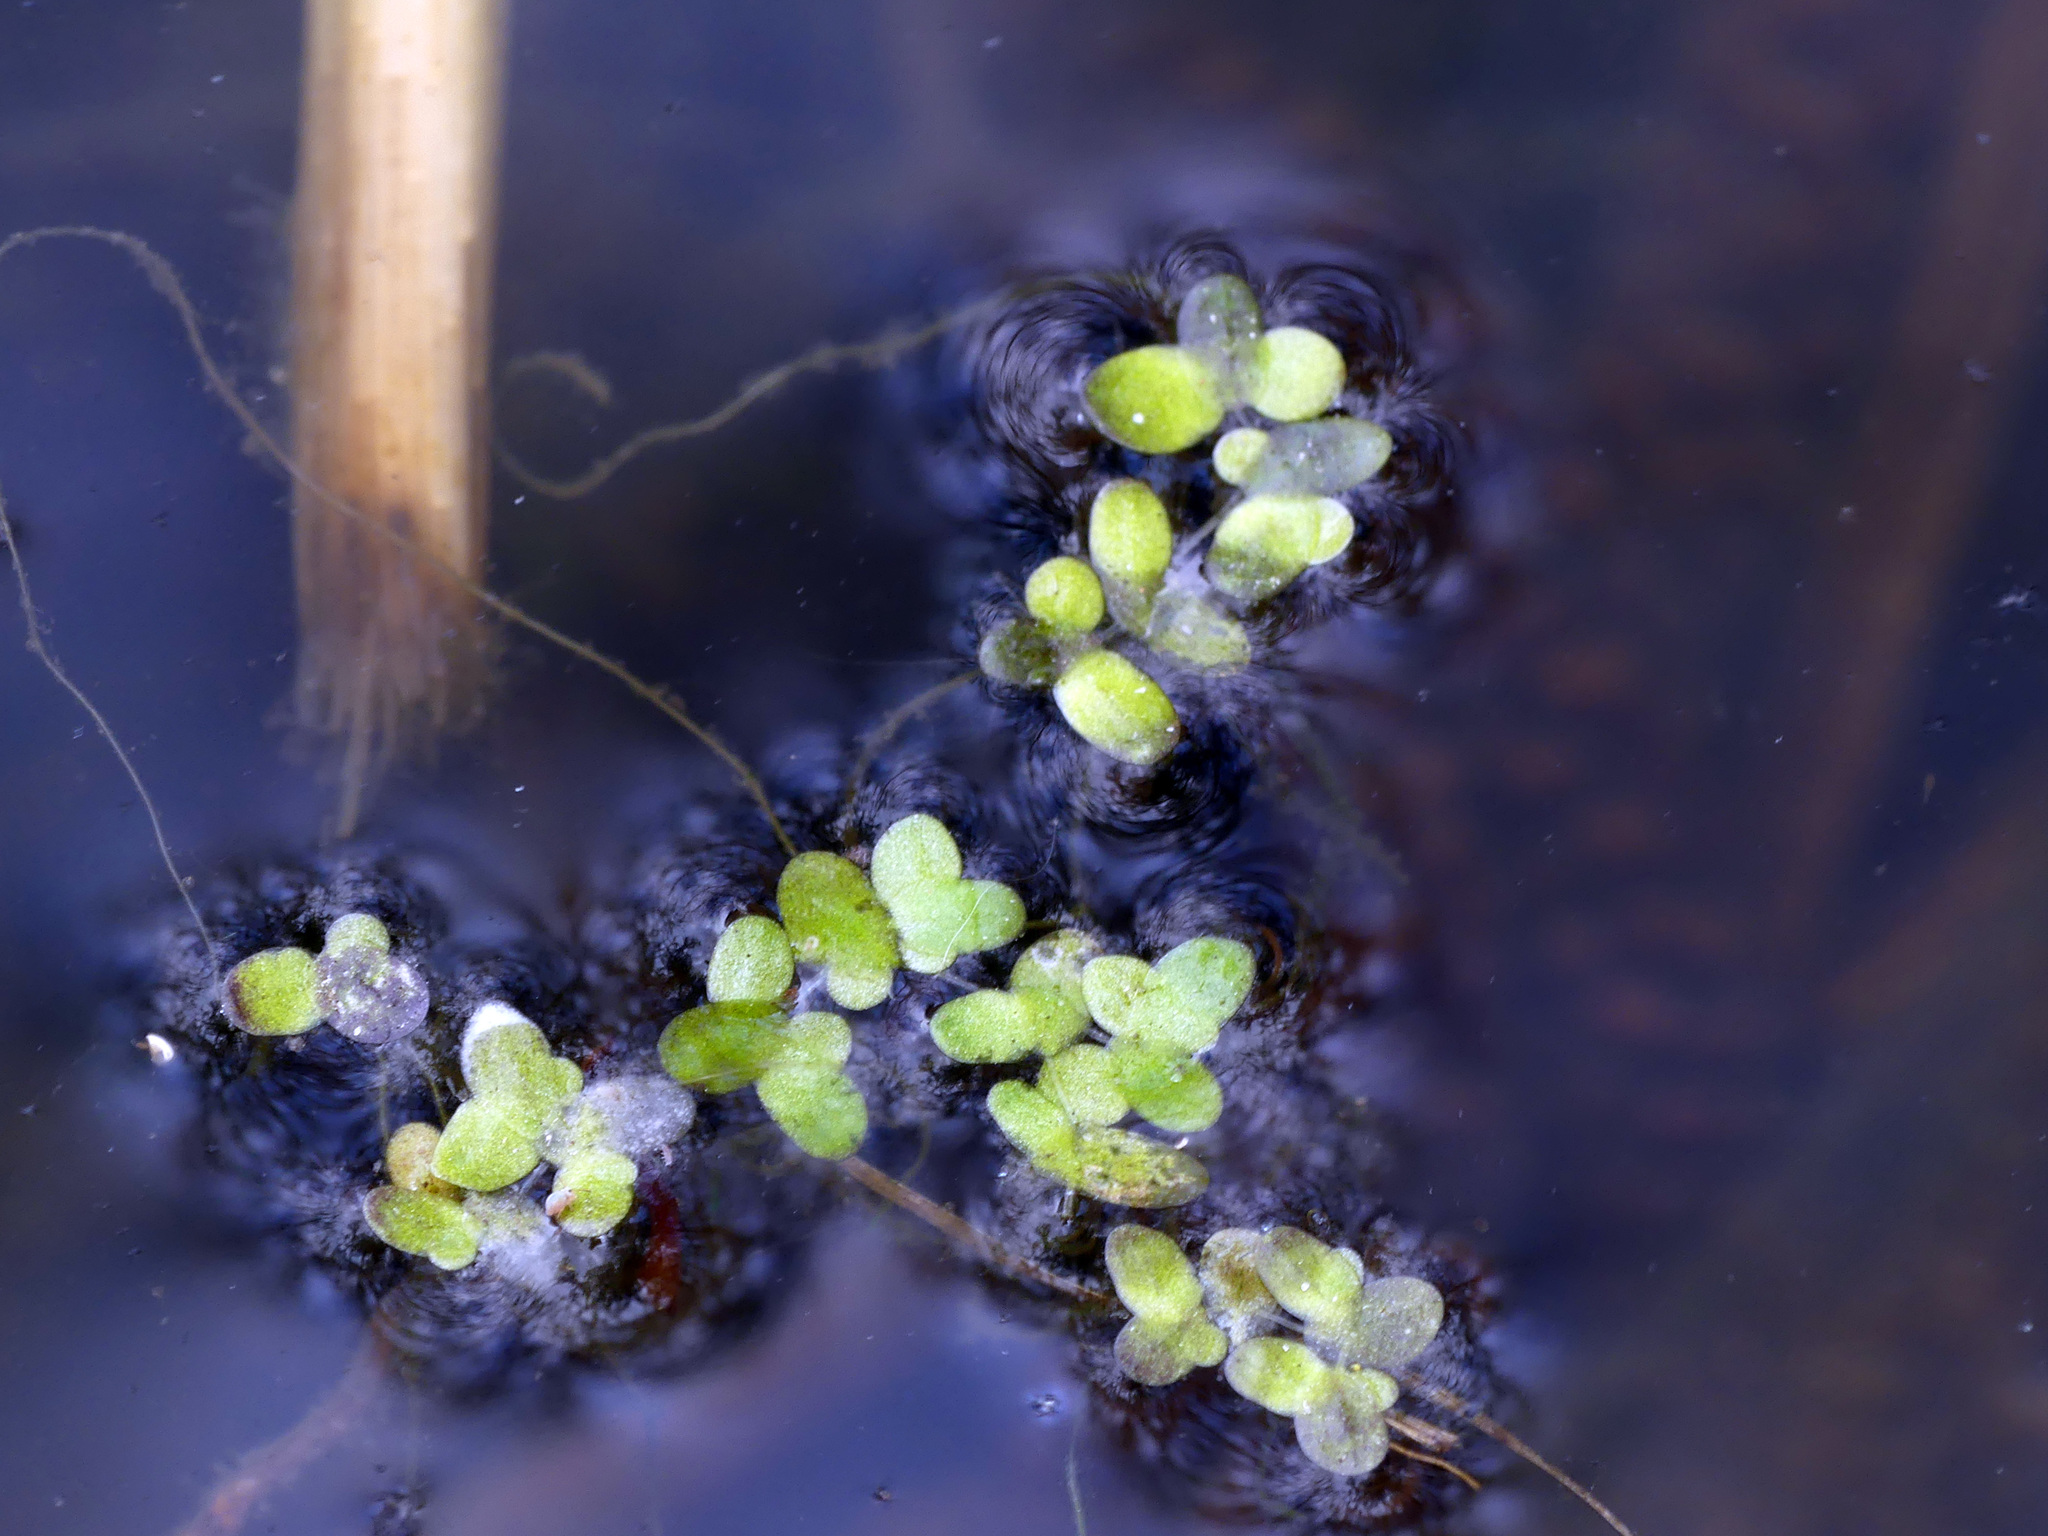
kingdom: Plantae
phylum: Tracheophyta
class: Liliopsida
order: Alismatales
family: Araceae
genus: Lemna
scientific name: Lemna minor
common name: Common duckweed
